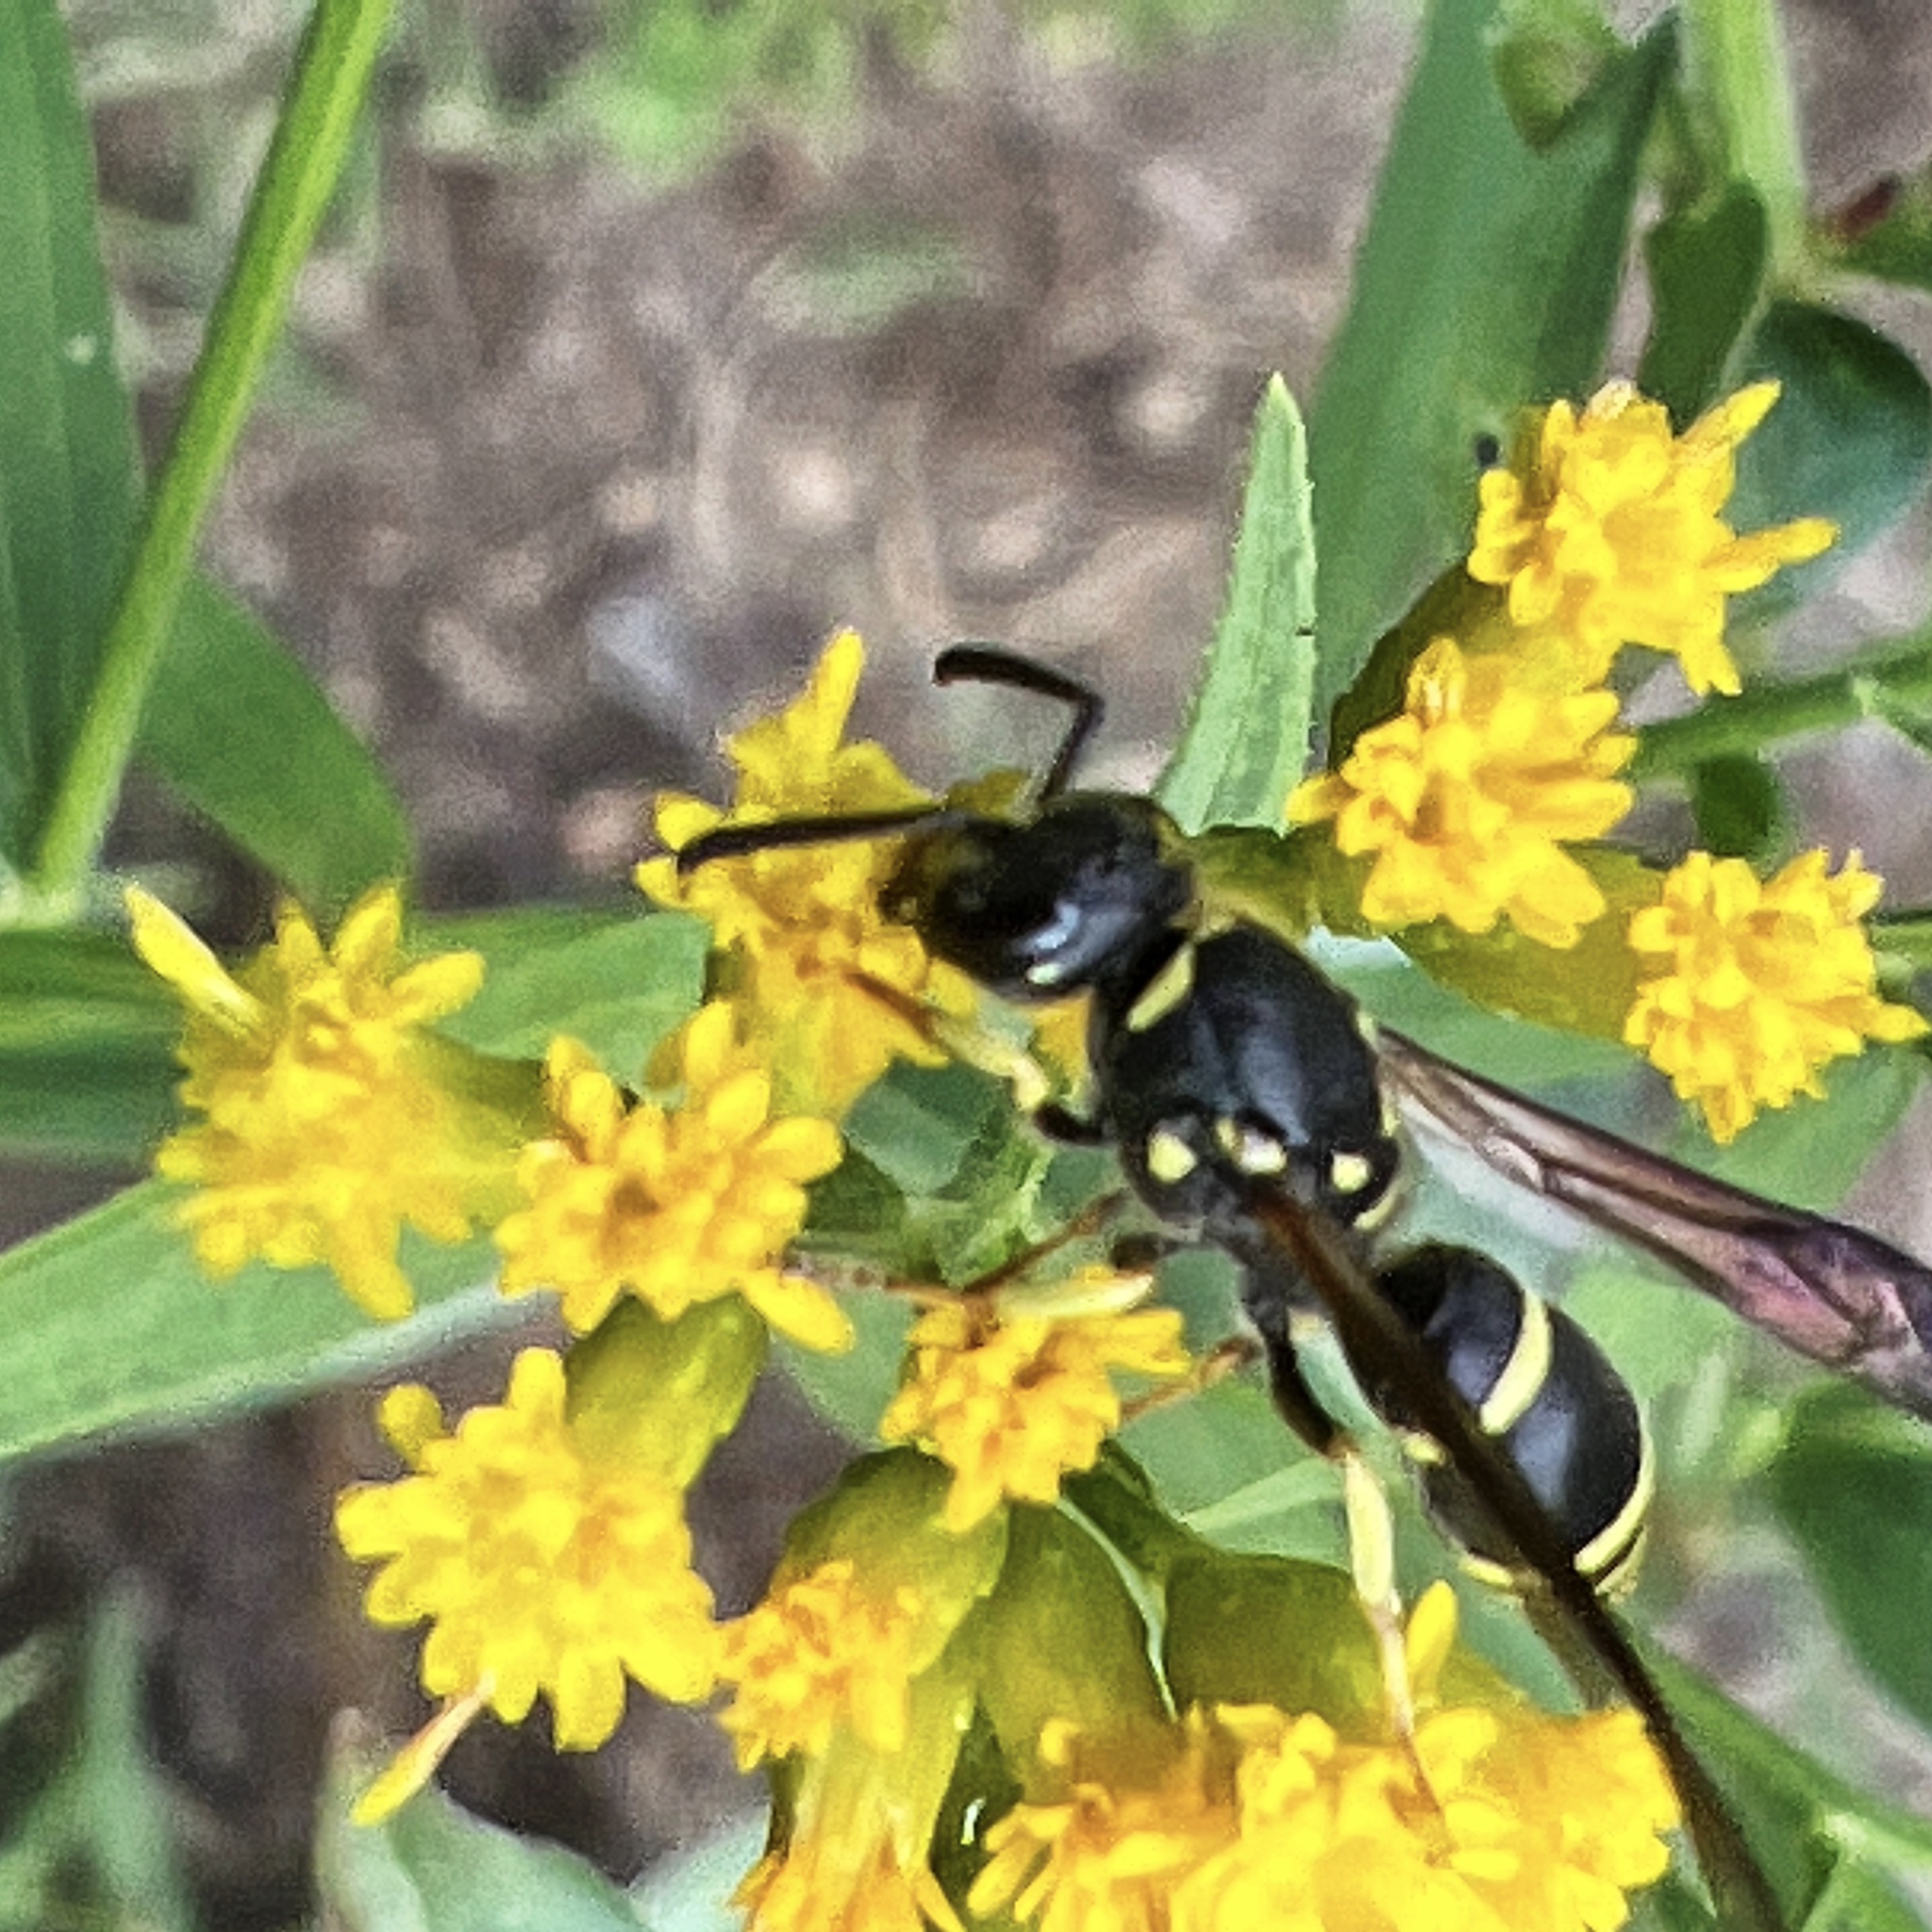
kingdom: Animalia
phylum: Arthropoda
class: Insecta
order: Hymenoptera
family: Vespidae
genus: Ancistrocerus
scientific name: Ancistrocerus adiabatus
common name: Bramble mason wasp
